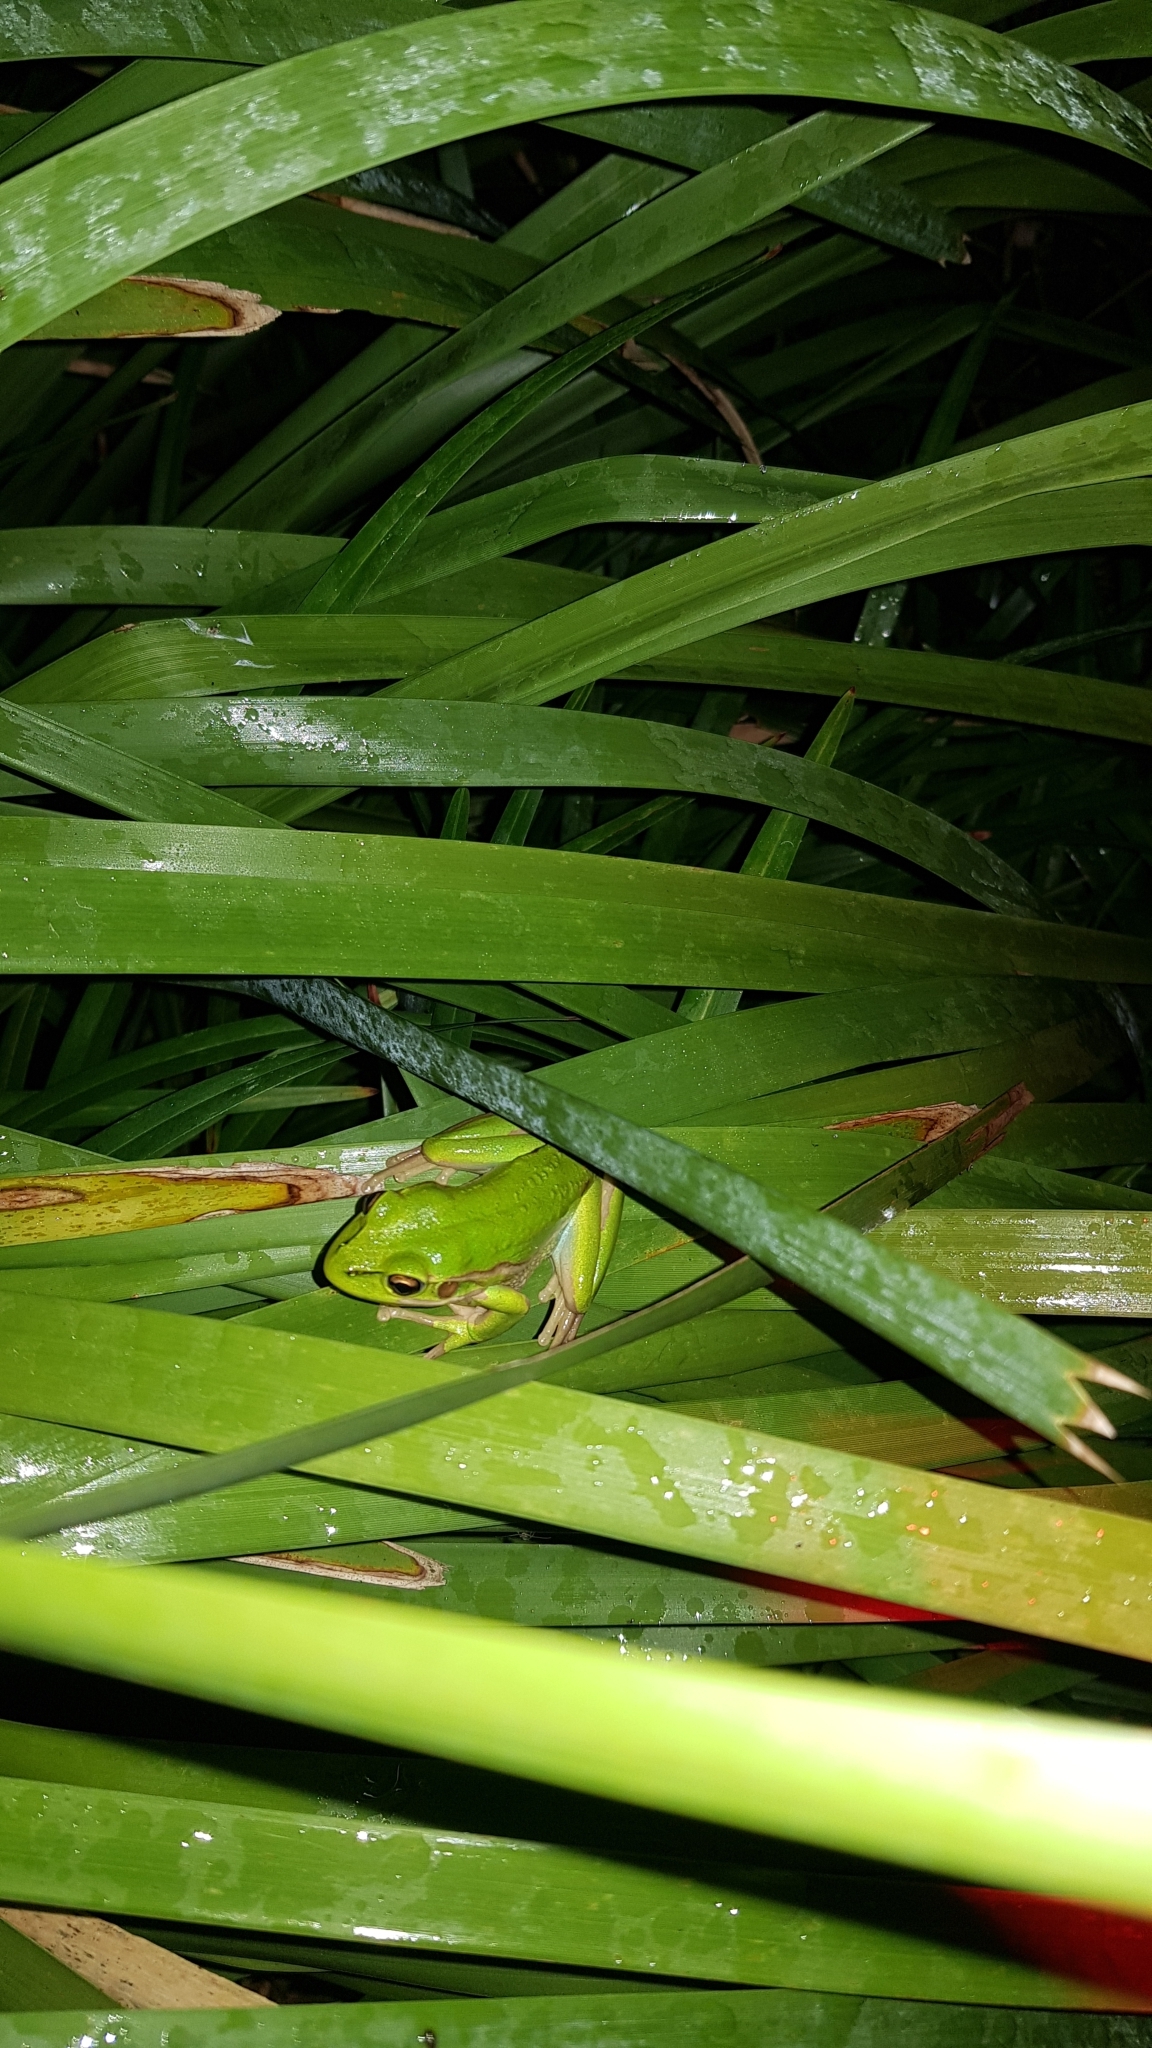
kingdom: Animalia
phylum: Chordata
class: Amphibia
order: Anura
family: Pelodryadidae
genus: Ranoidea
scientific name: Ranoidea aurea
